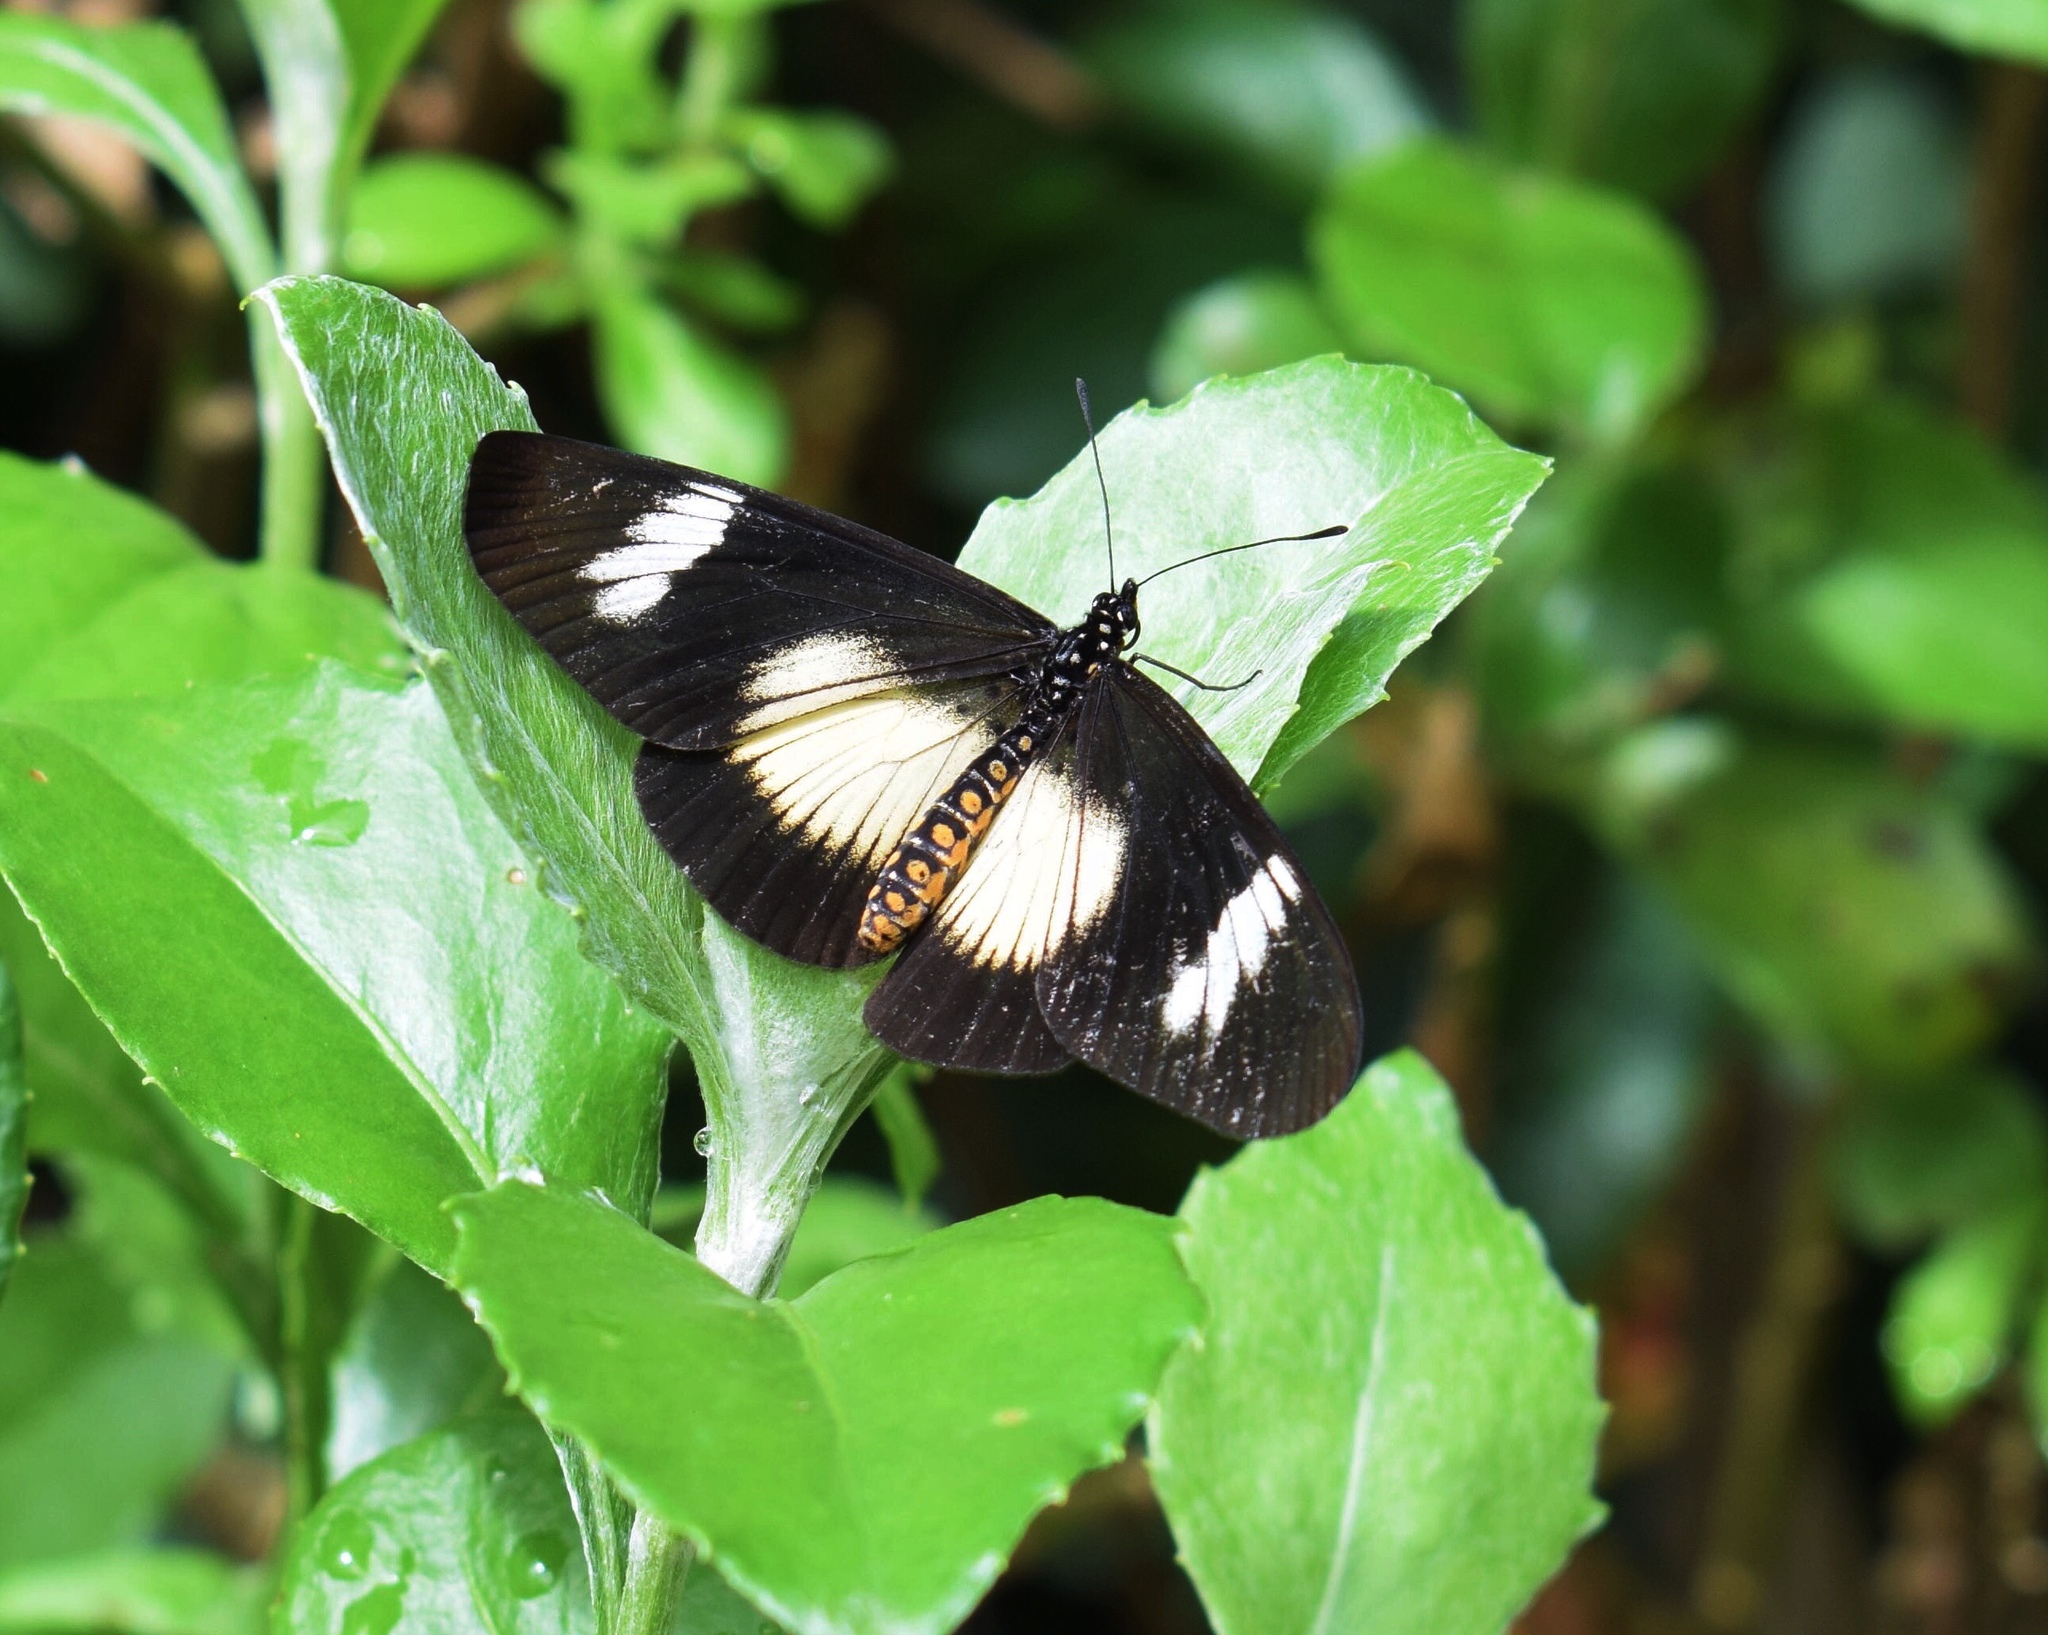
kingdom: Animalia
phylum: Arthropoda
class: Insecta
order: Lepidoptera
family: Nymphalidae
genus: Acraea
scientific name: Acraea esebria
